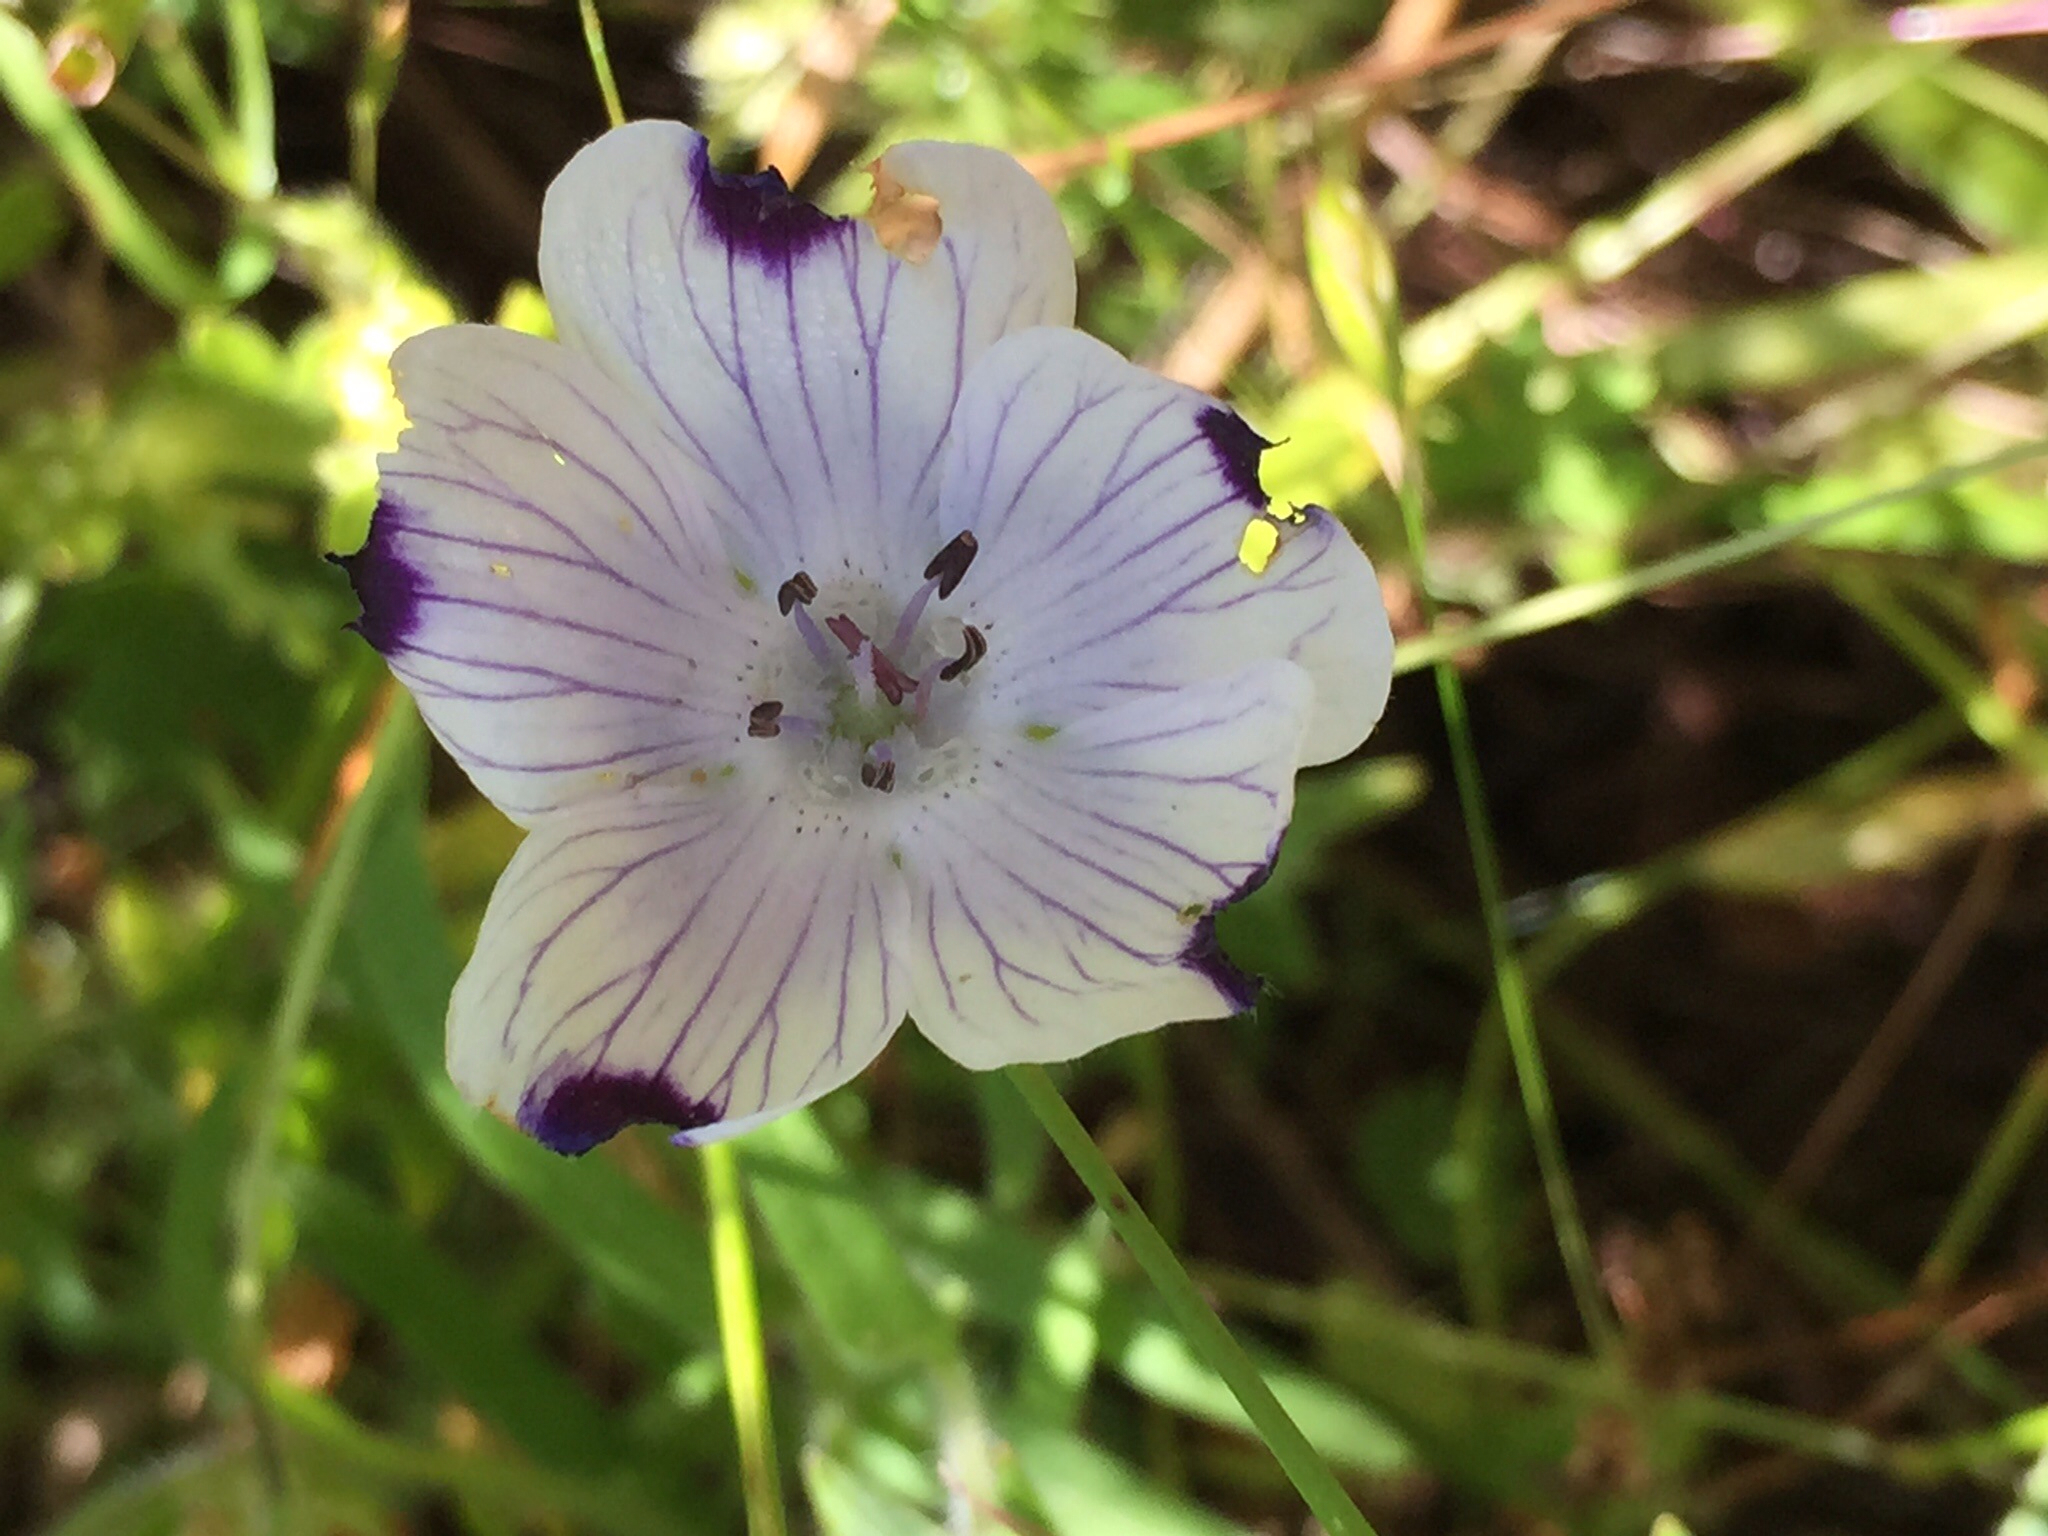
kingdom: Plantae
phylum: Tracheophyta
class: Magnoliopsida
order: Boraginales
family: Hydrophyllaceae
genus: Nemophila
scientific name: Nemophila maculata
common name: Fivespot
